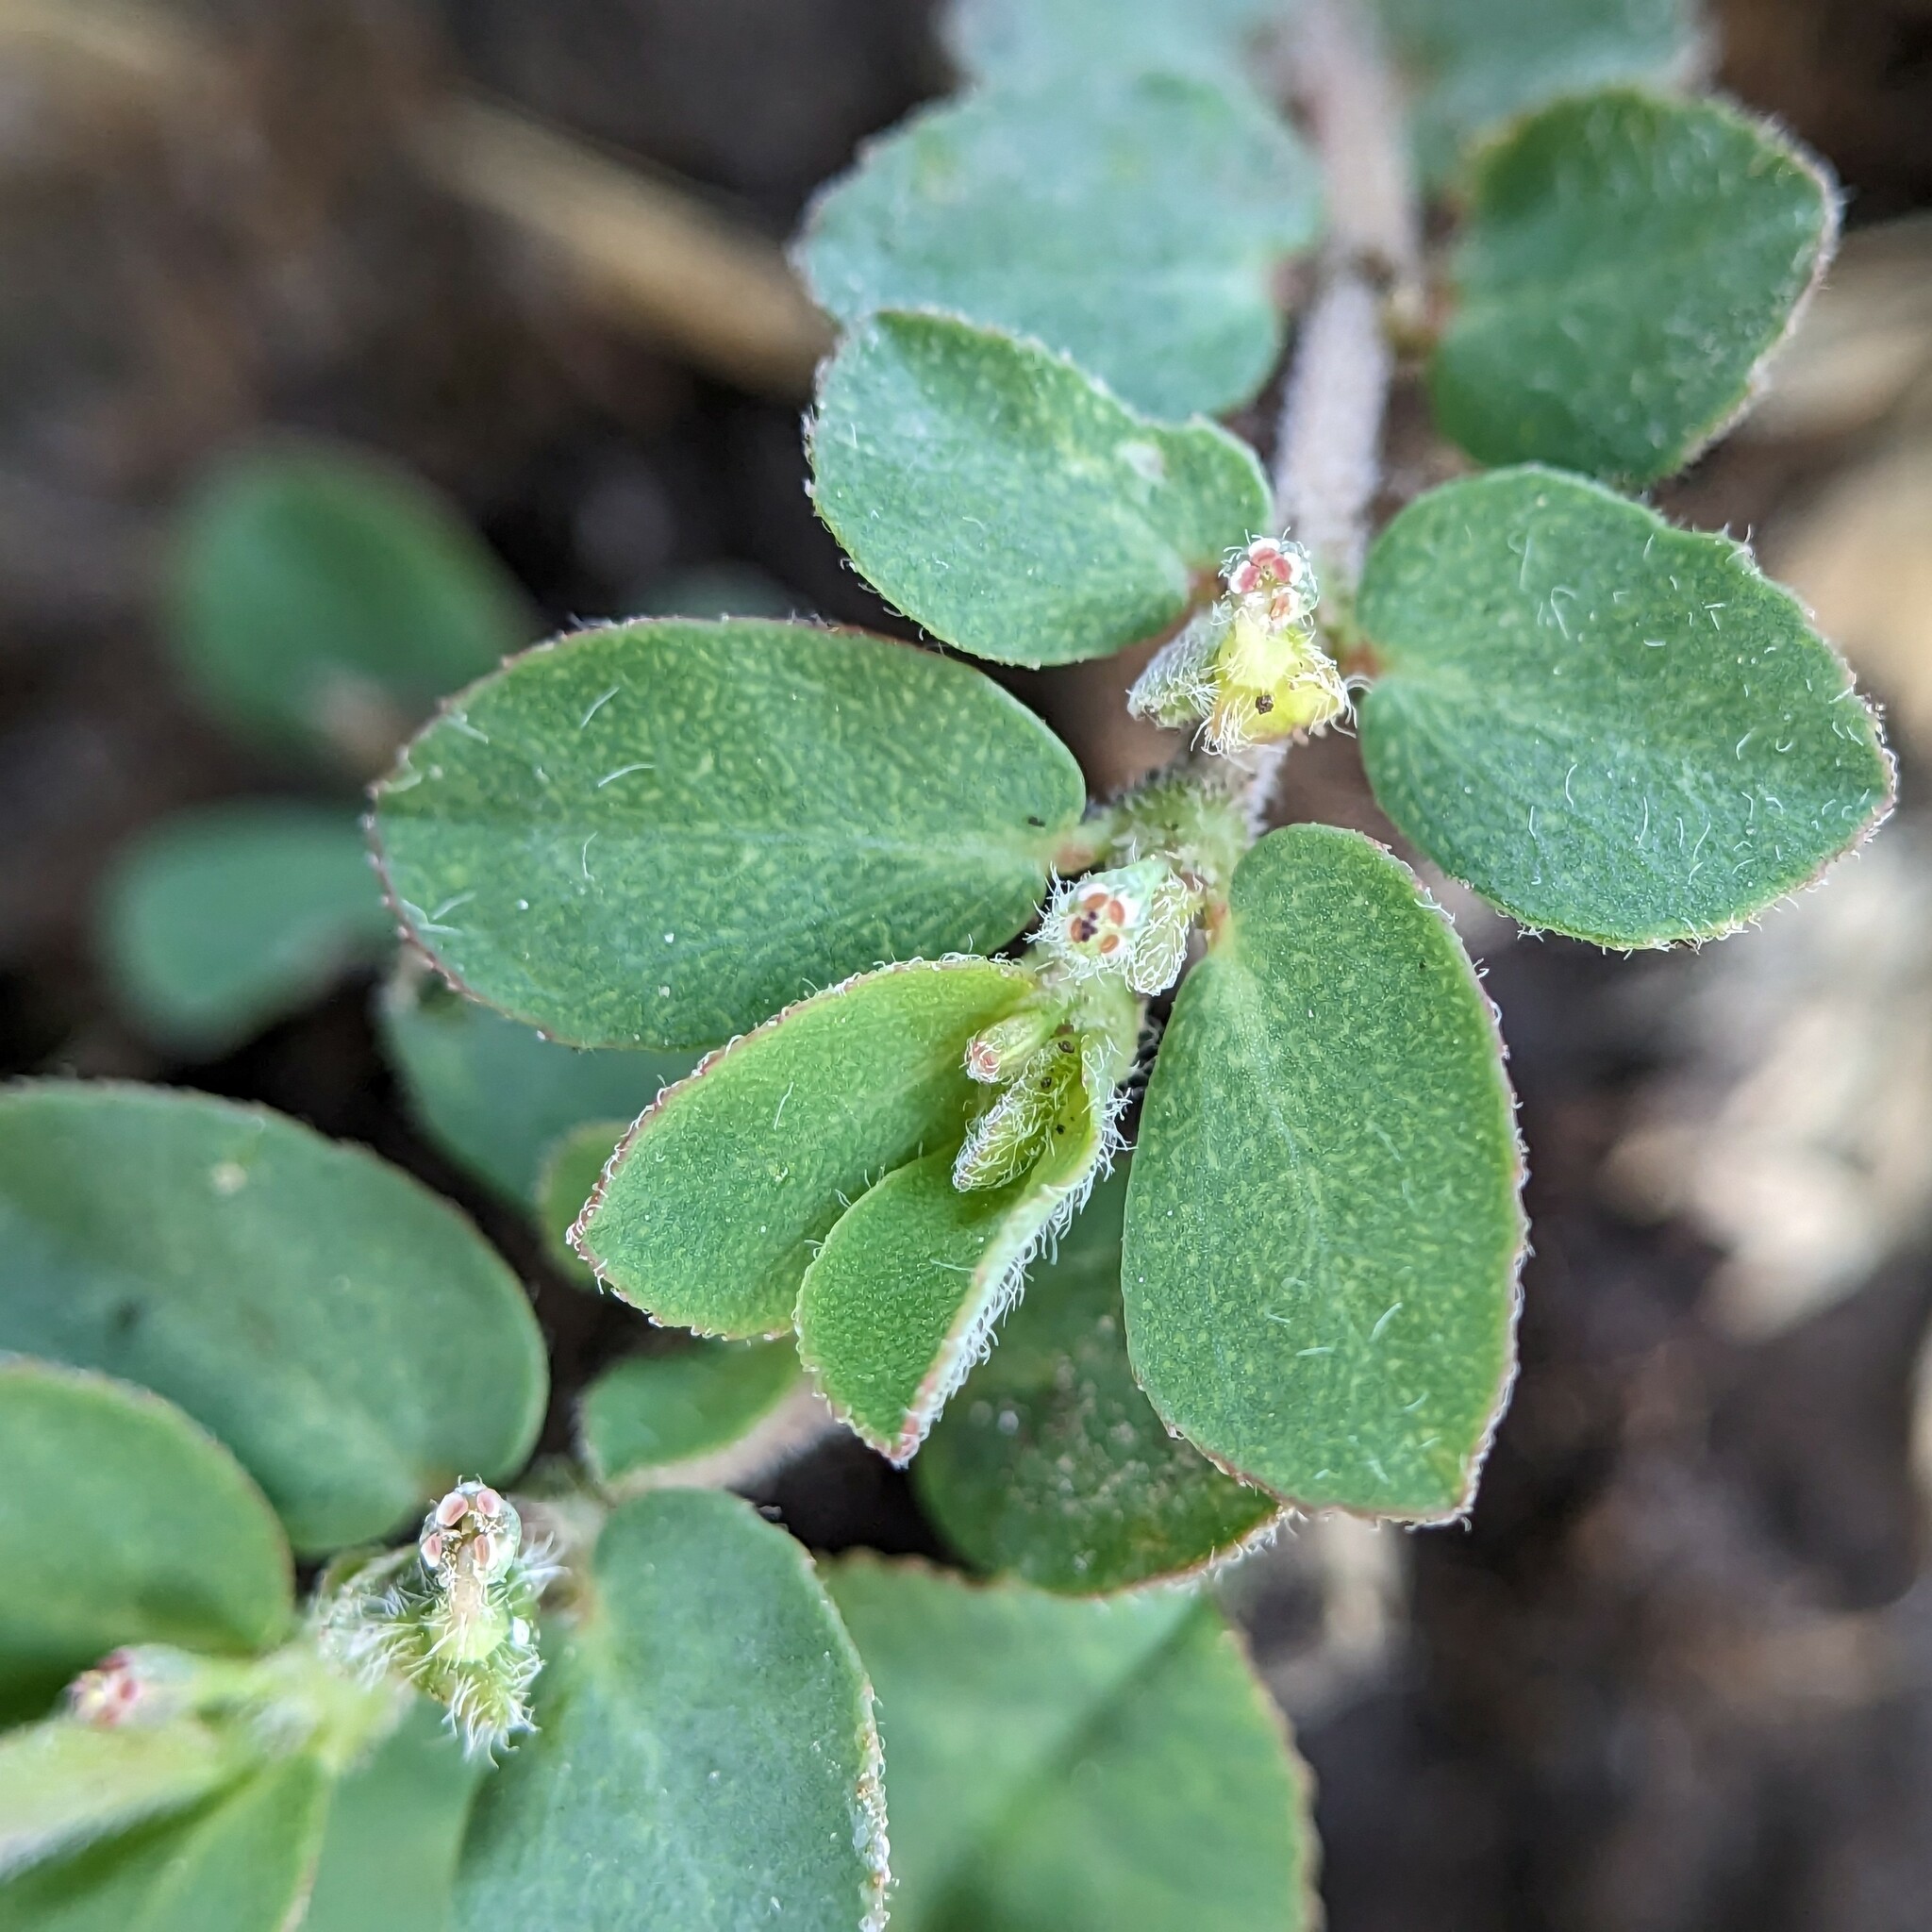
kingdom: Plantae
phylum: Tracheophyta
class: Magnoliopsida
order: Malpighiales
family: Euphorbiaceae
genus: Euphorbia
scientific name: Euphorbia prostrata
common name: Prostrate sandmat
